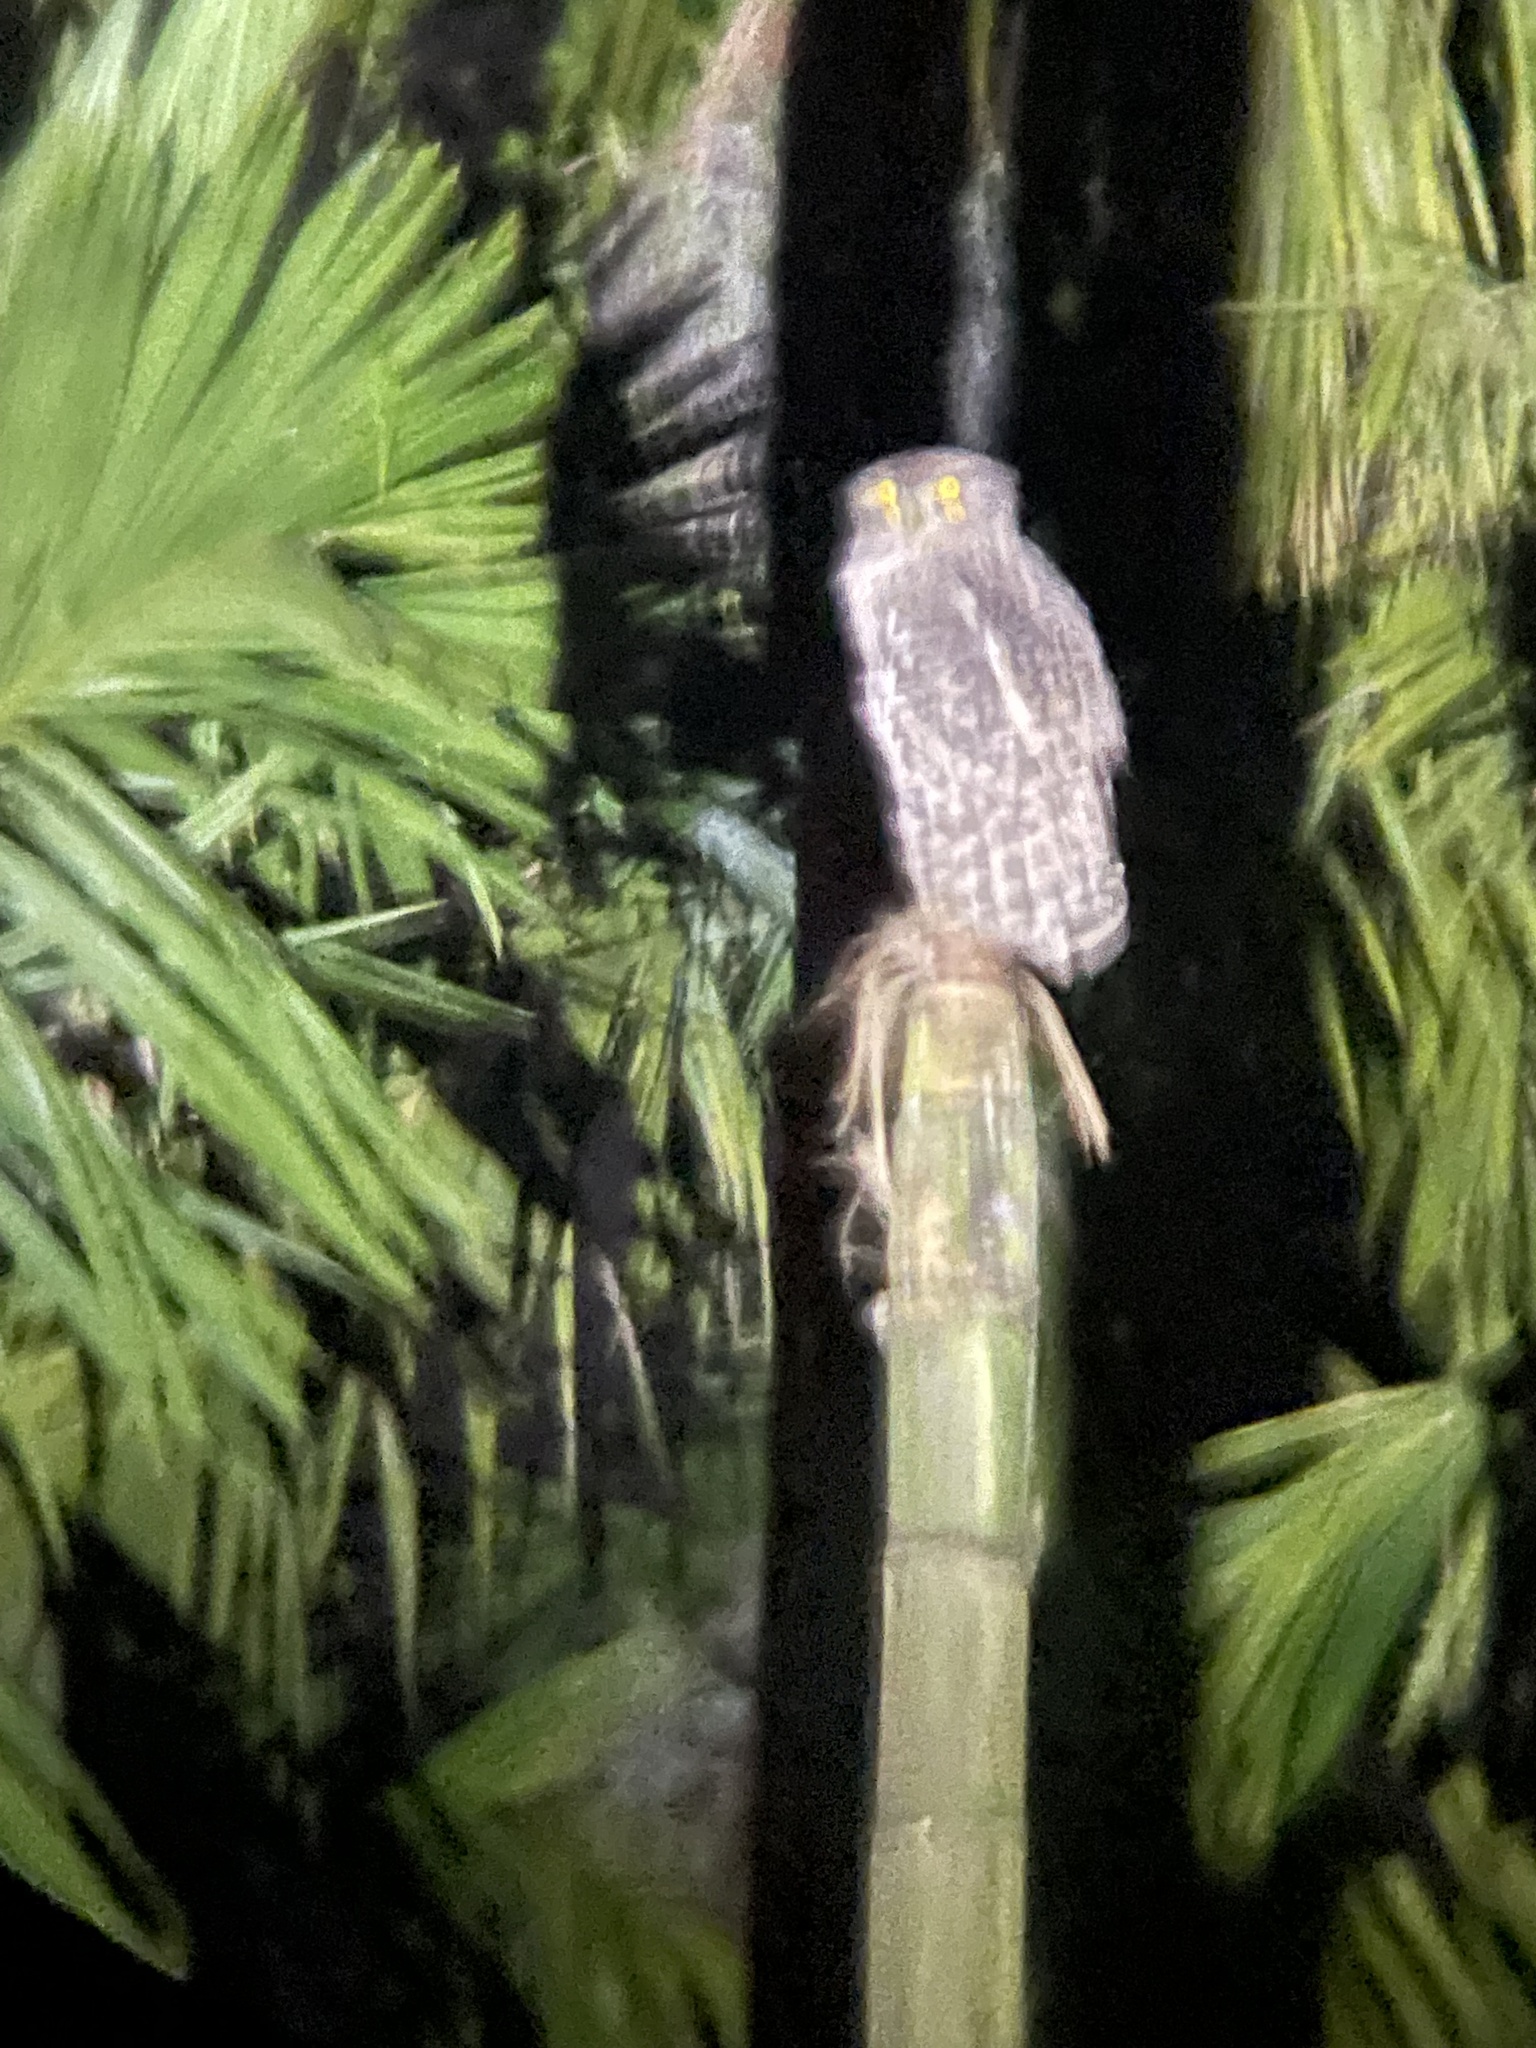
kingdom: Animalia
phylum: Chordata
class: Aves
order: Strigiformes
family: Strigidae
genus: Ketupa
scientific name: Ketupa zeylonensis
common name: Brown fish owl
